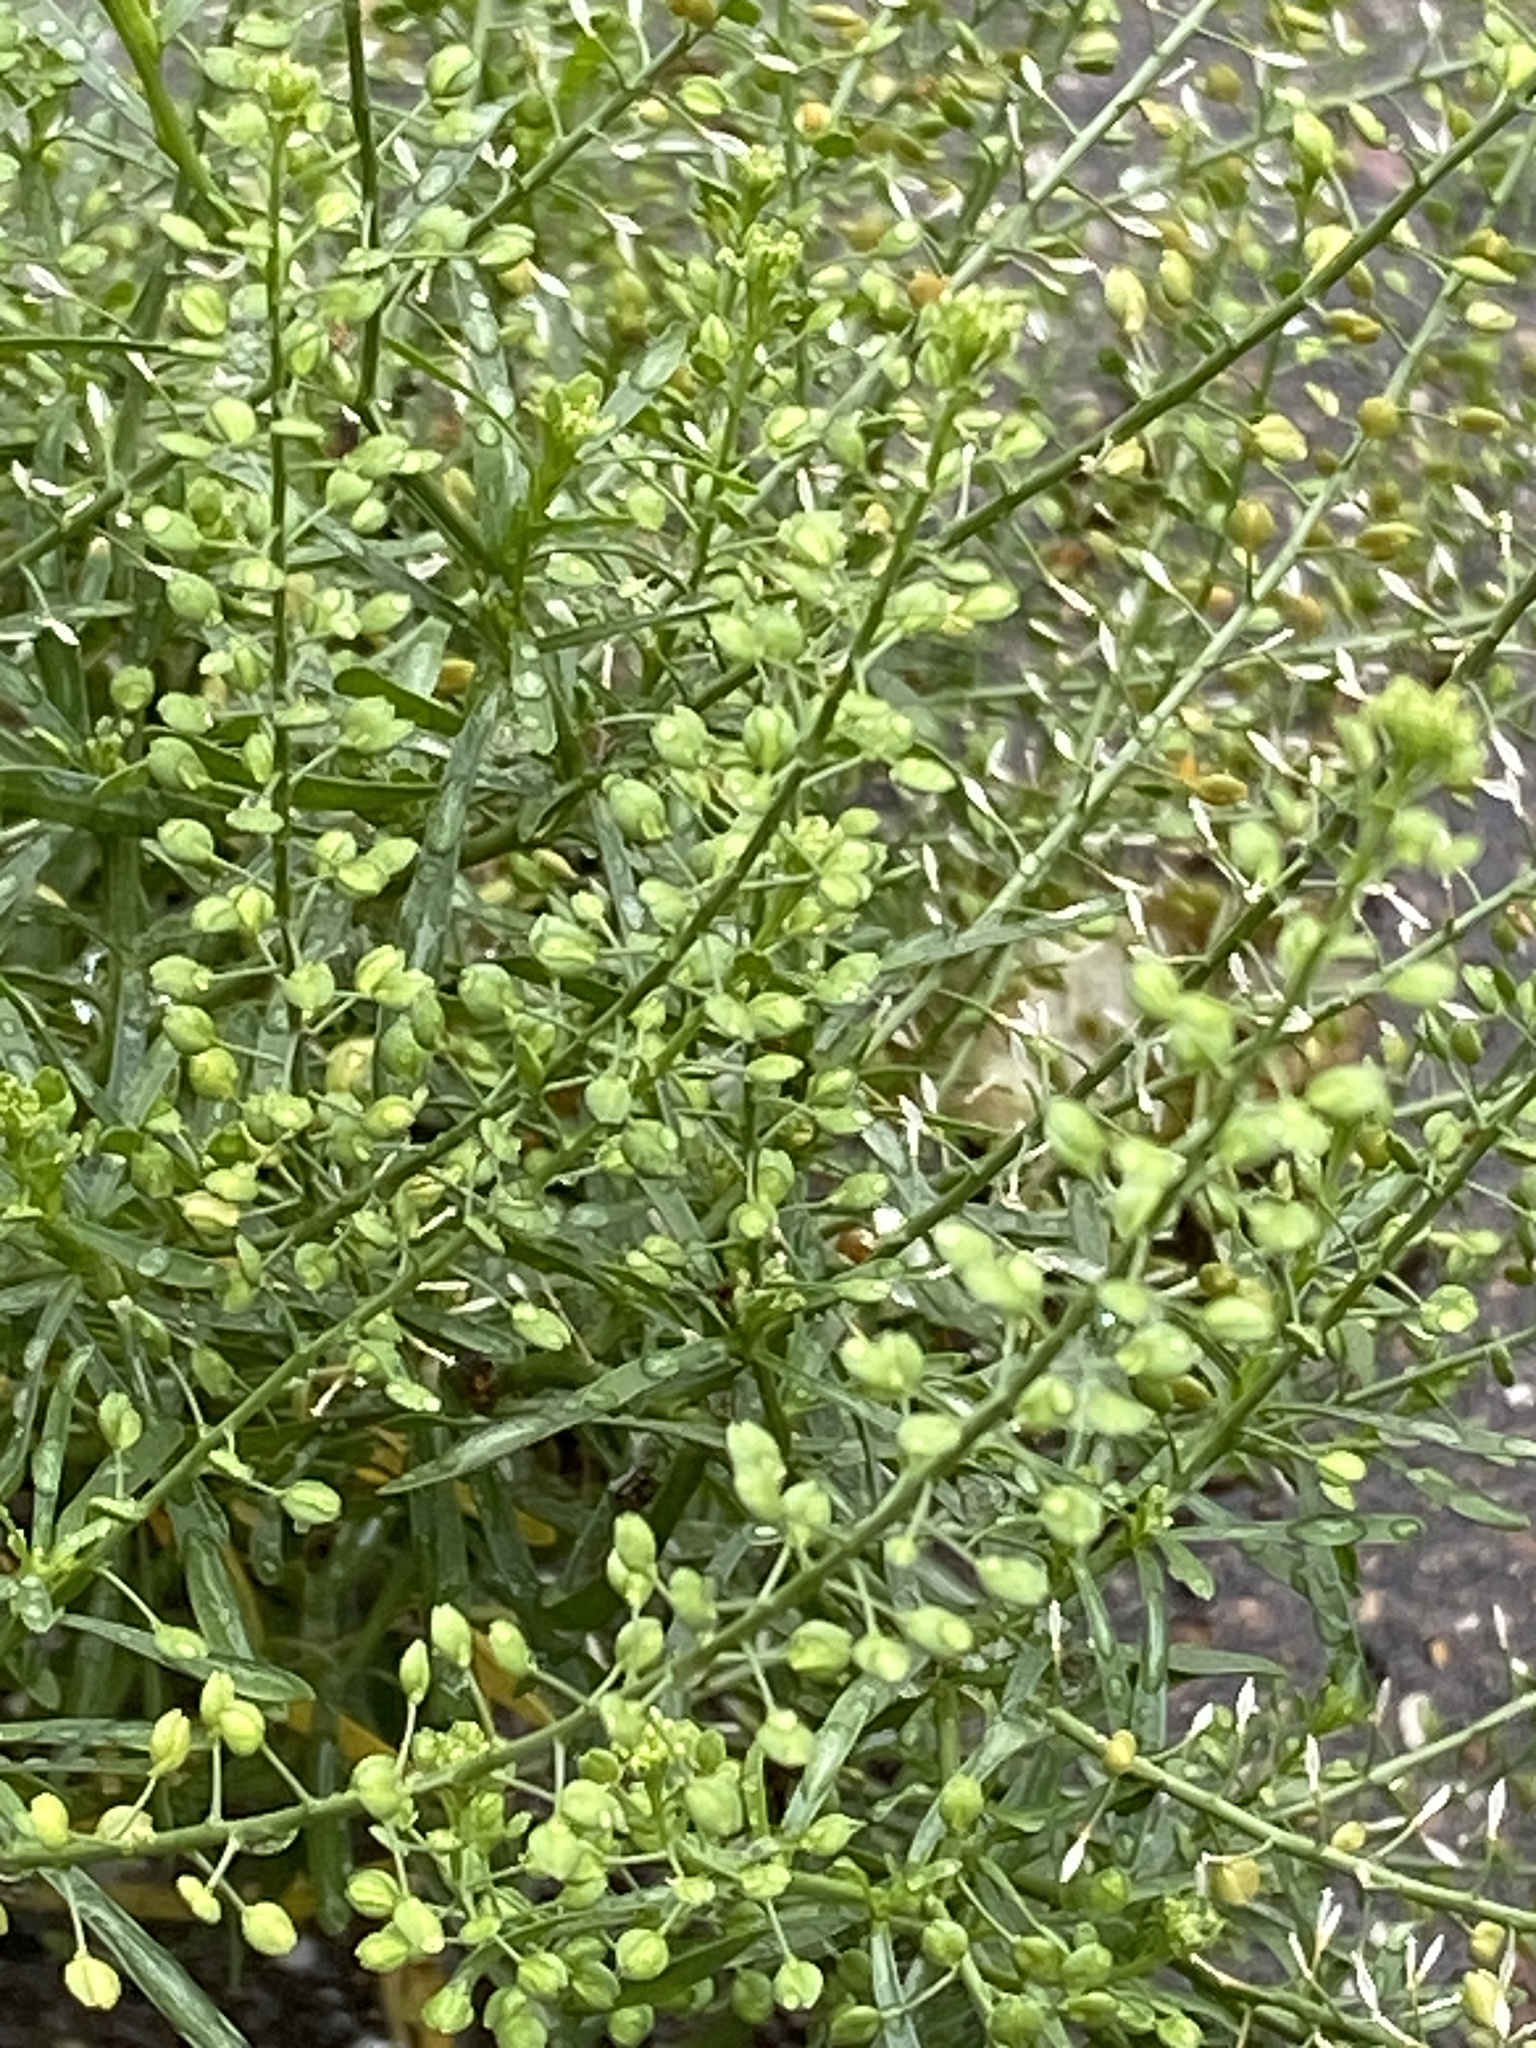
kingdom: Plantae
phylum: Tracheophyta
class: Magnoliopsida
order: Brassicales
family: Brassicaceae
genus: Lepidium
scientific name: Lepidium ruderale
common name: Narrow-leaved pepperwort
